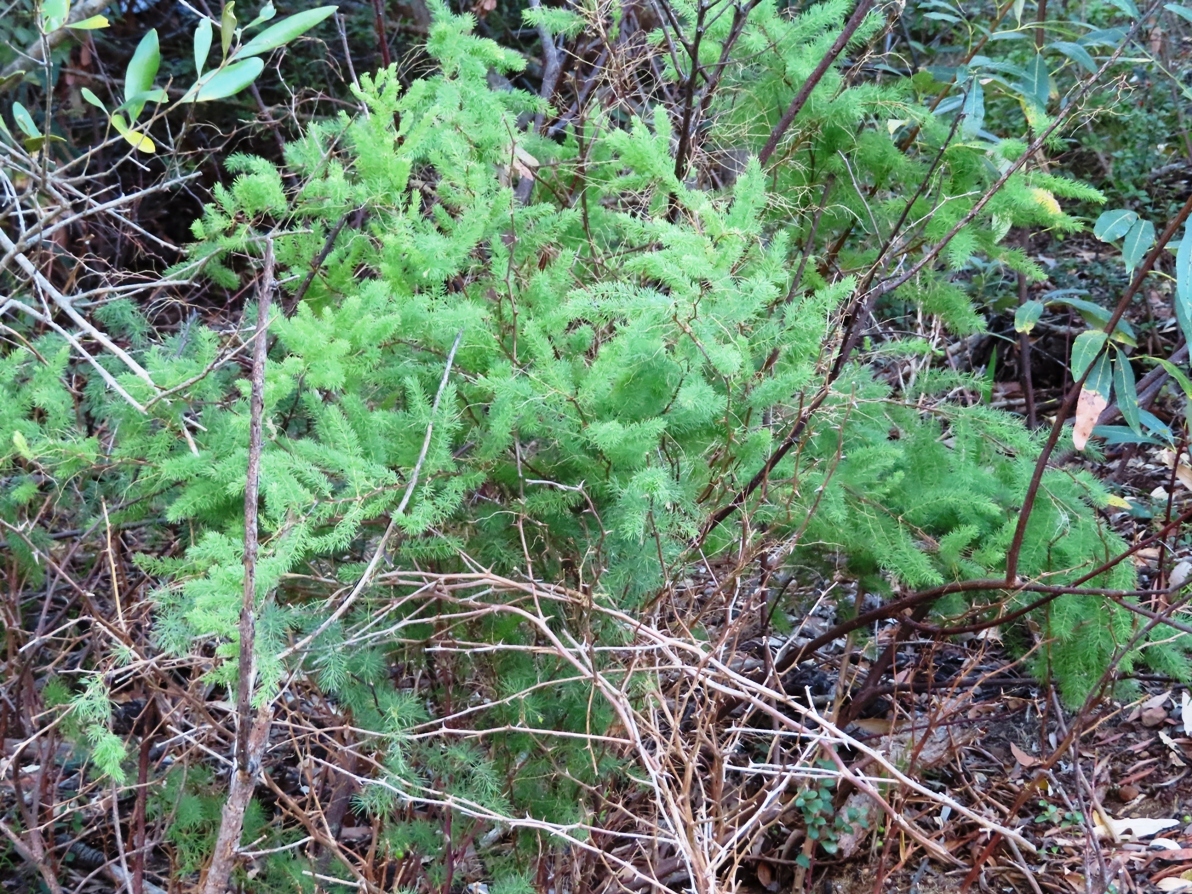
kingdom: Plantae
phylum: Tracheophyta
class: Liliopsida
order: Asparagales
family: Asparagaceae
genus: Asparagus
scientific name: Asparagus rubicundus
